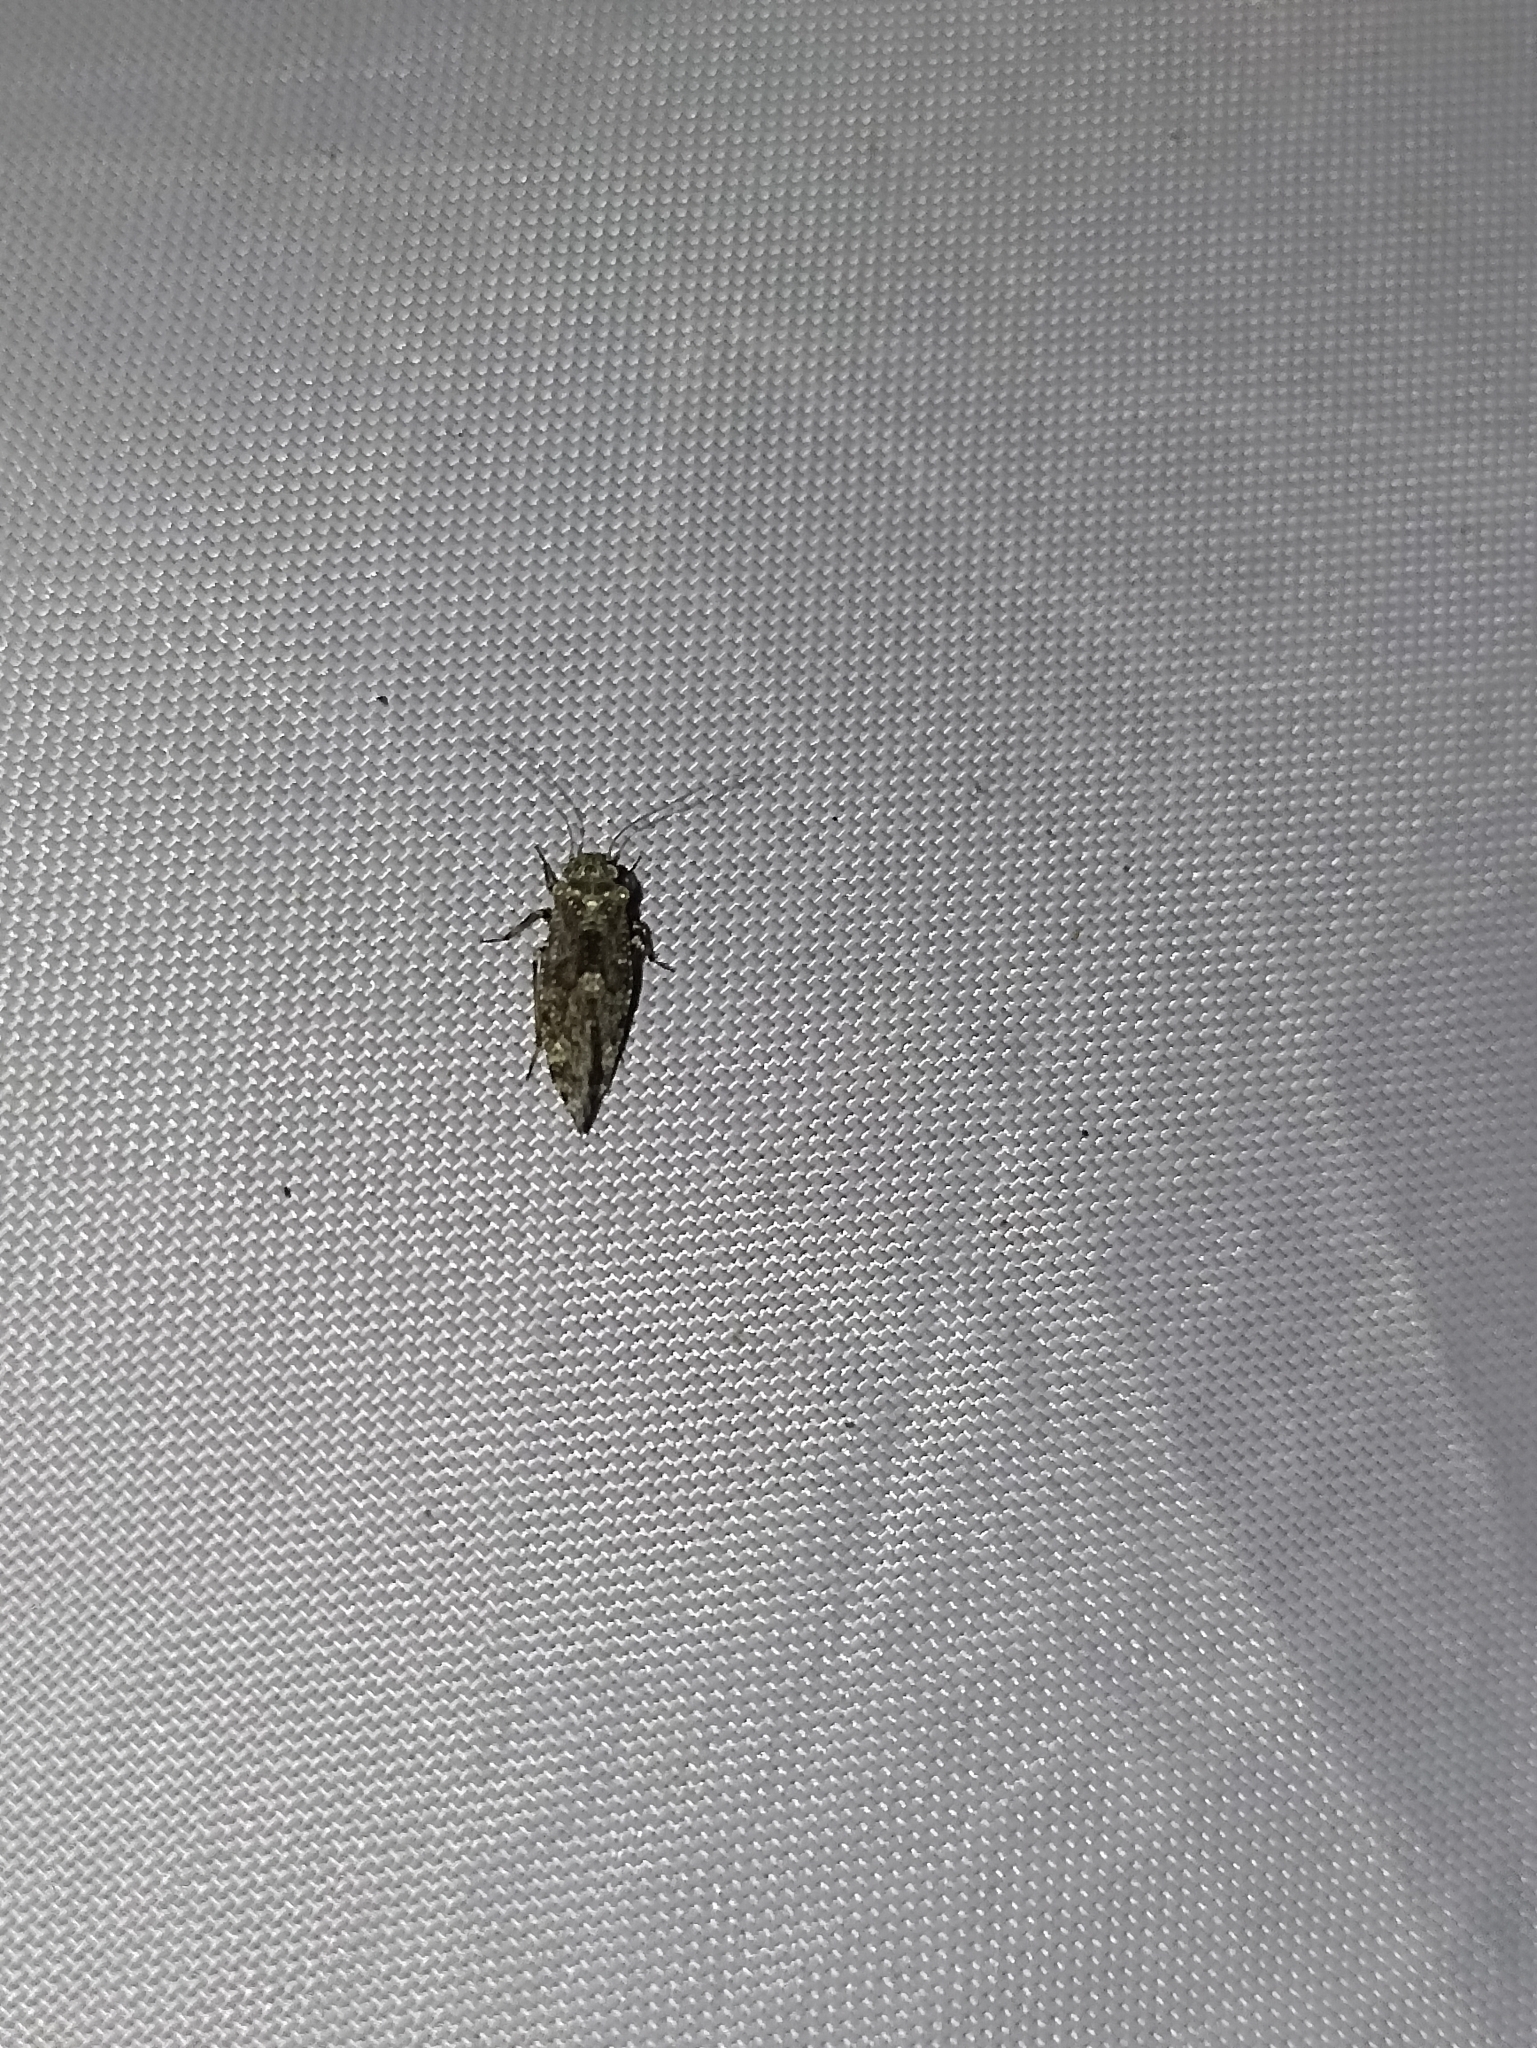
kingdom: Animalia
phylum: Arthropoda
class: Insecta
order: Psocodea
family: Myopsocidae
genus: Nimbopsocus
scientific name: Nimbopsocus australis
